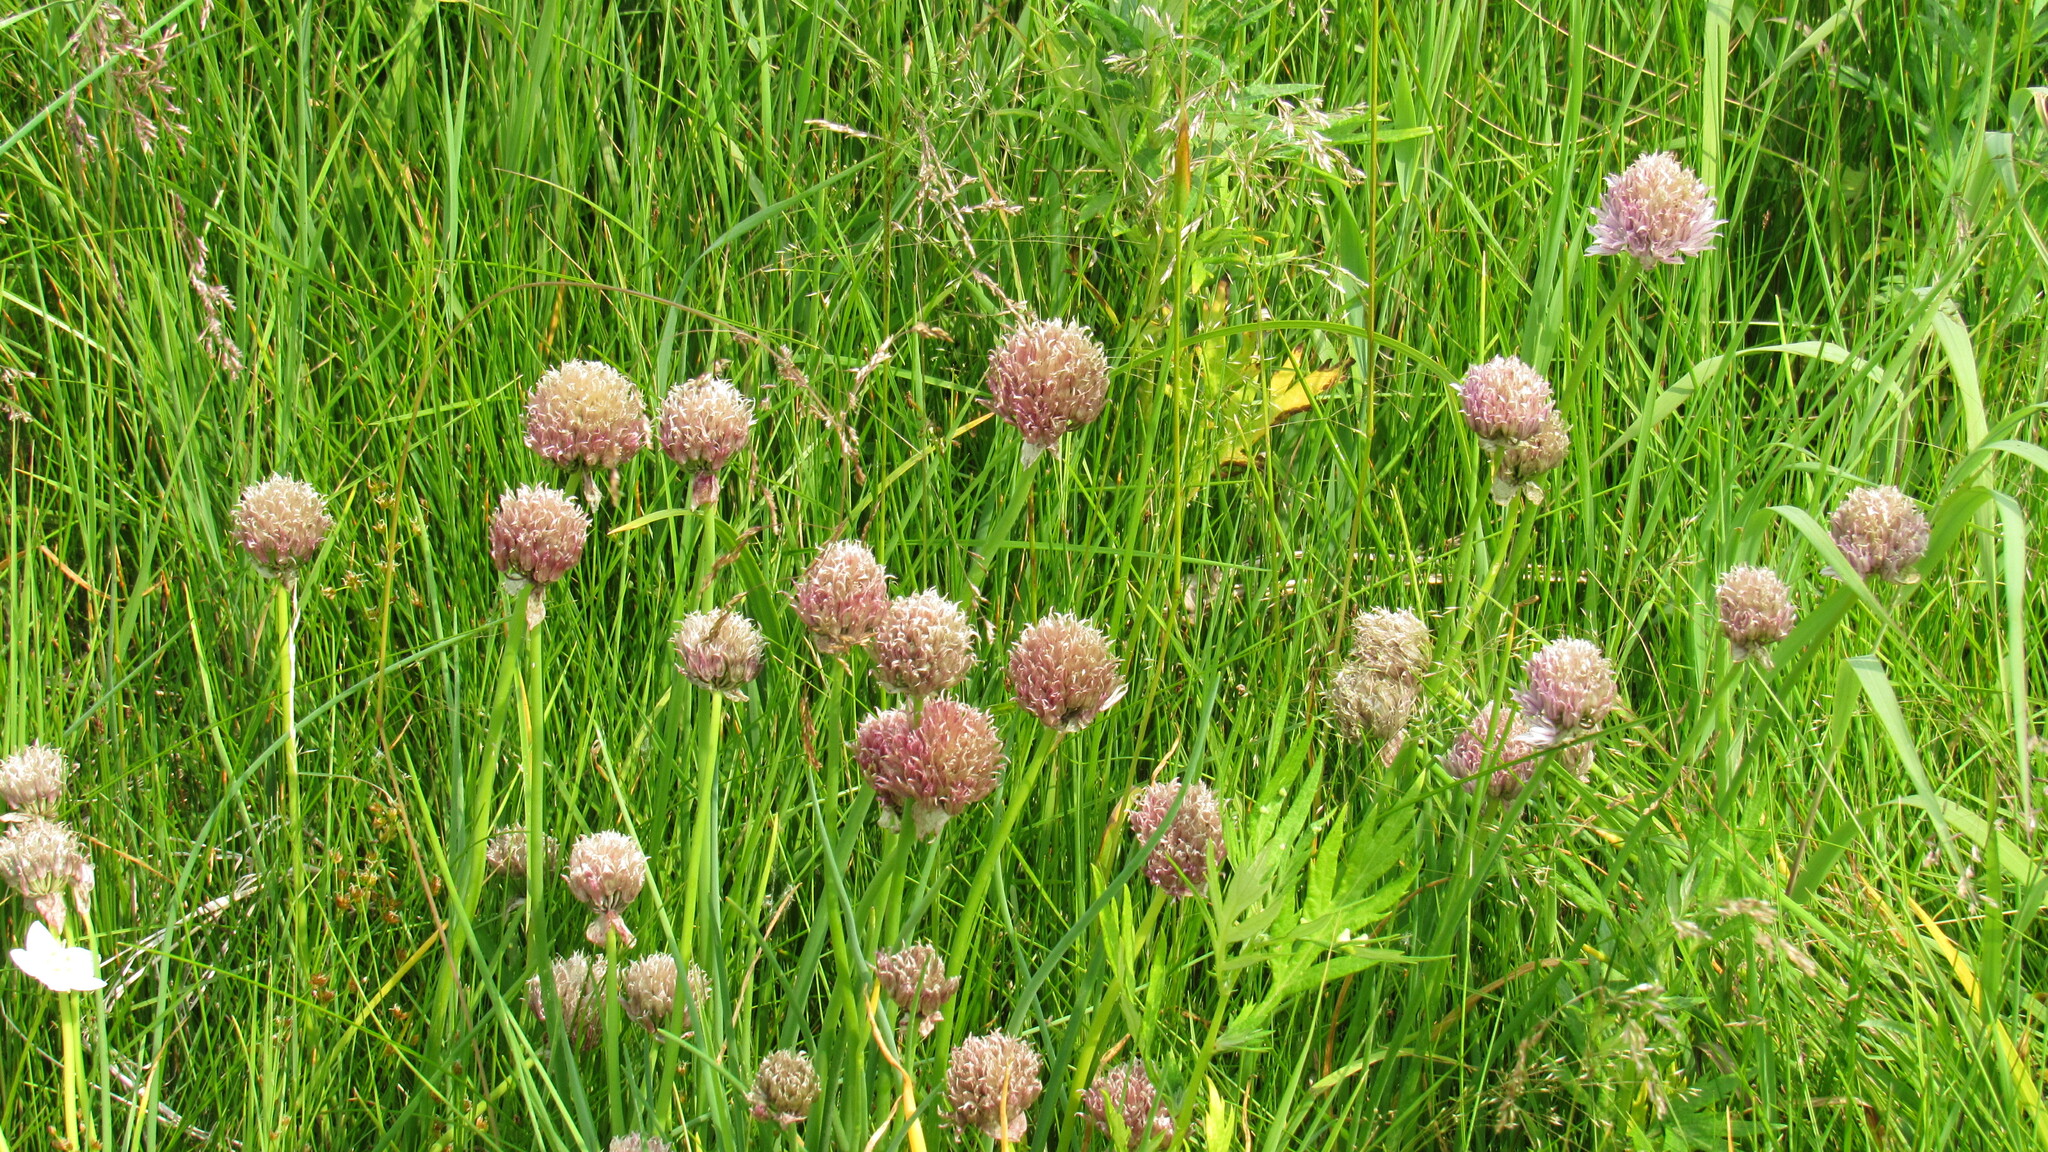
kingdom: Plantae
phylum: Tracheophyta
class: Liliopsida
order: Asparagales
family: Amaryllidaceae
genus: Allium
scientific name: Allium schoenoprasum
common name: Chives
